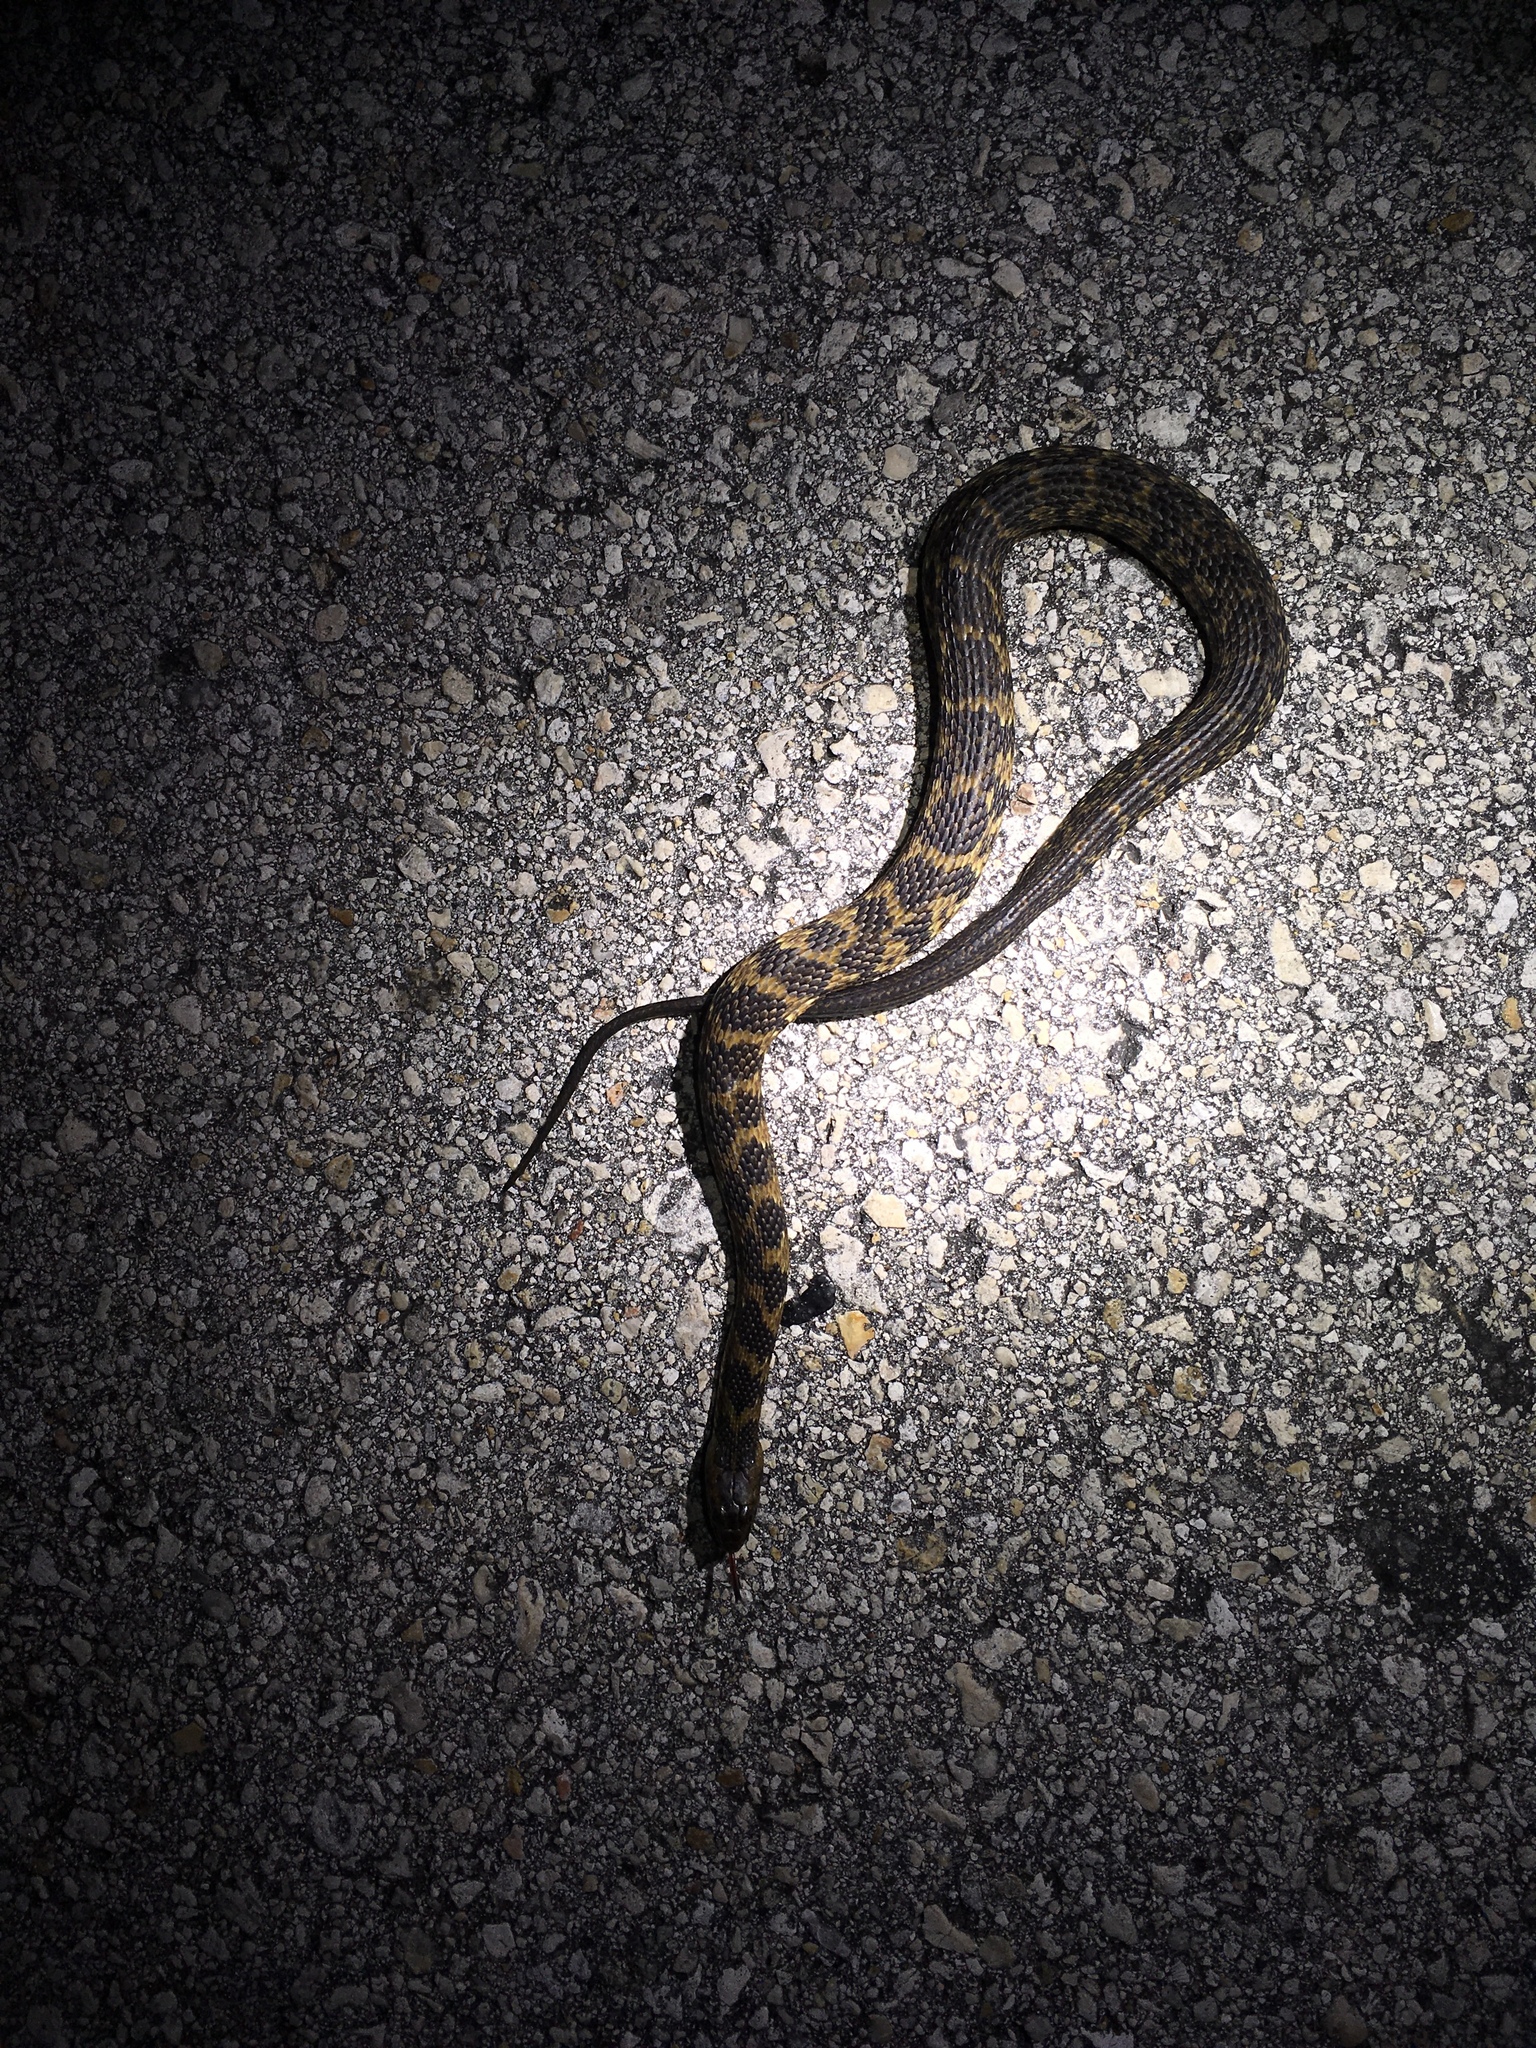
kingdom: Animalia
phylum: Chordata
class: Squamata
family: Colubridae
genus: Nerodia
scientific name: Nerodia
